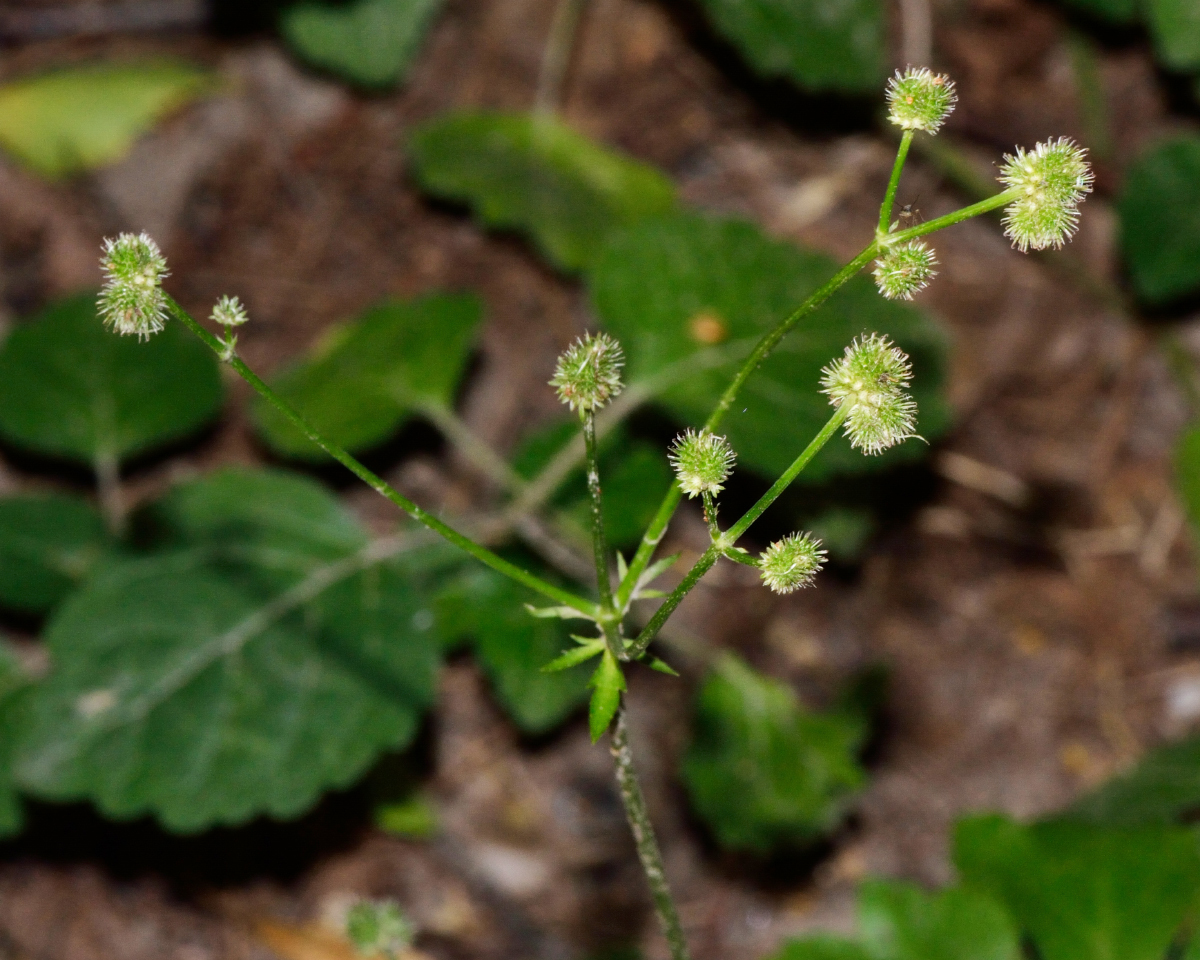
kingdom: Plantae
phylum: Tracheophyta
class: Magnoliopsida
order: Apiales
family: Apiaceae
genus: Sanicula
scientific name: Sanicula europaea
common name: Sanicle
